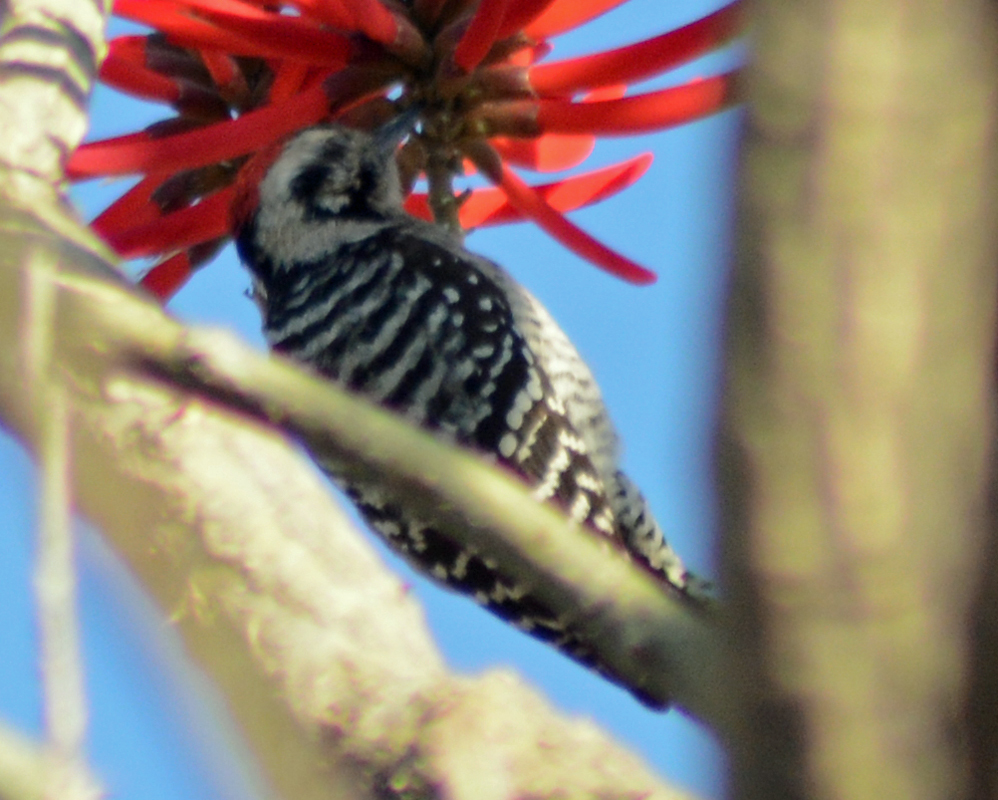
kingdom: Animalia
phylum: Chordata
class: Aves
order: Piciformes
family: Picidae
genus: Dryobates
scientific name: Dryobates scalaris
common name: Ladder-backed woodpecker
